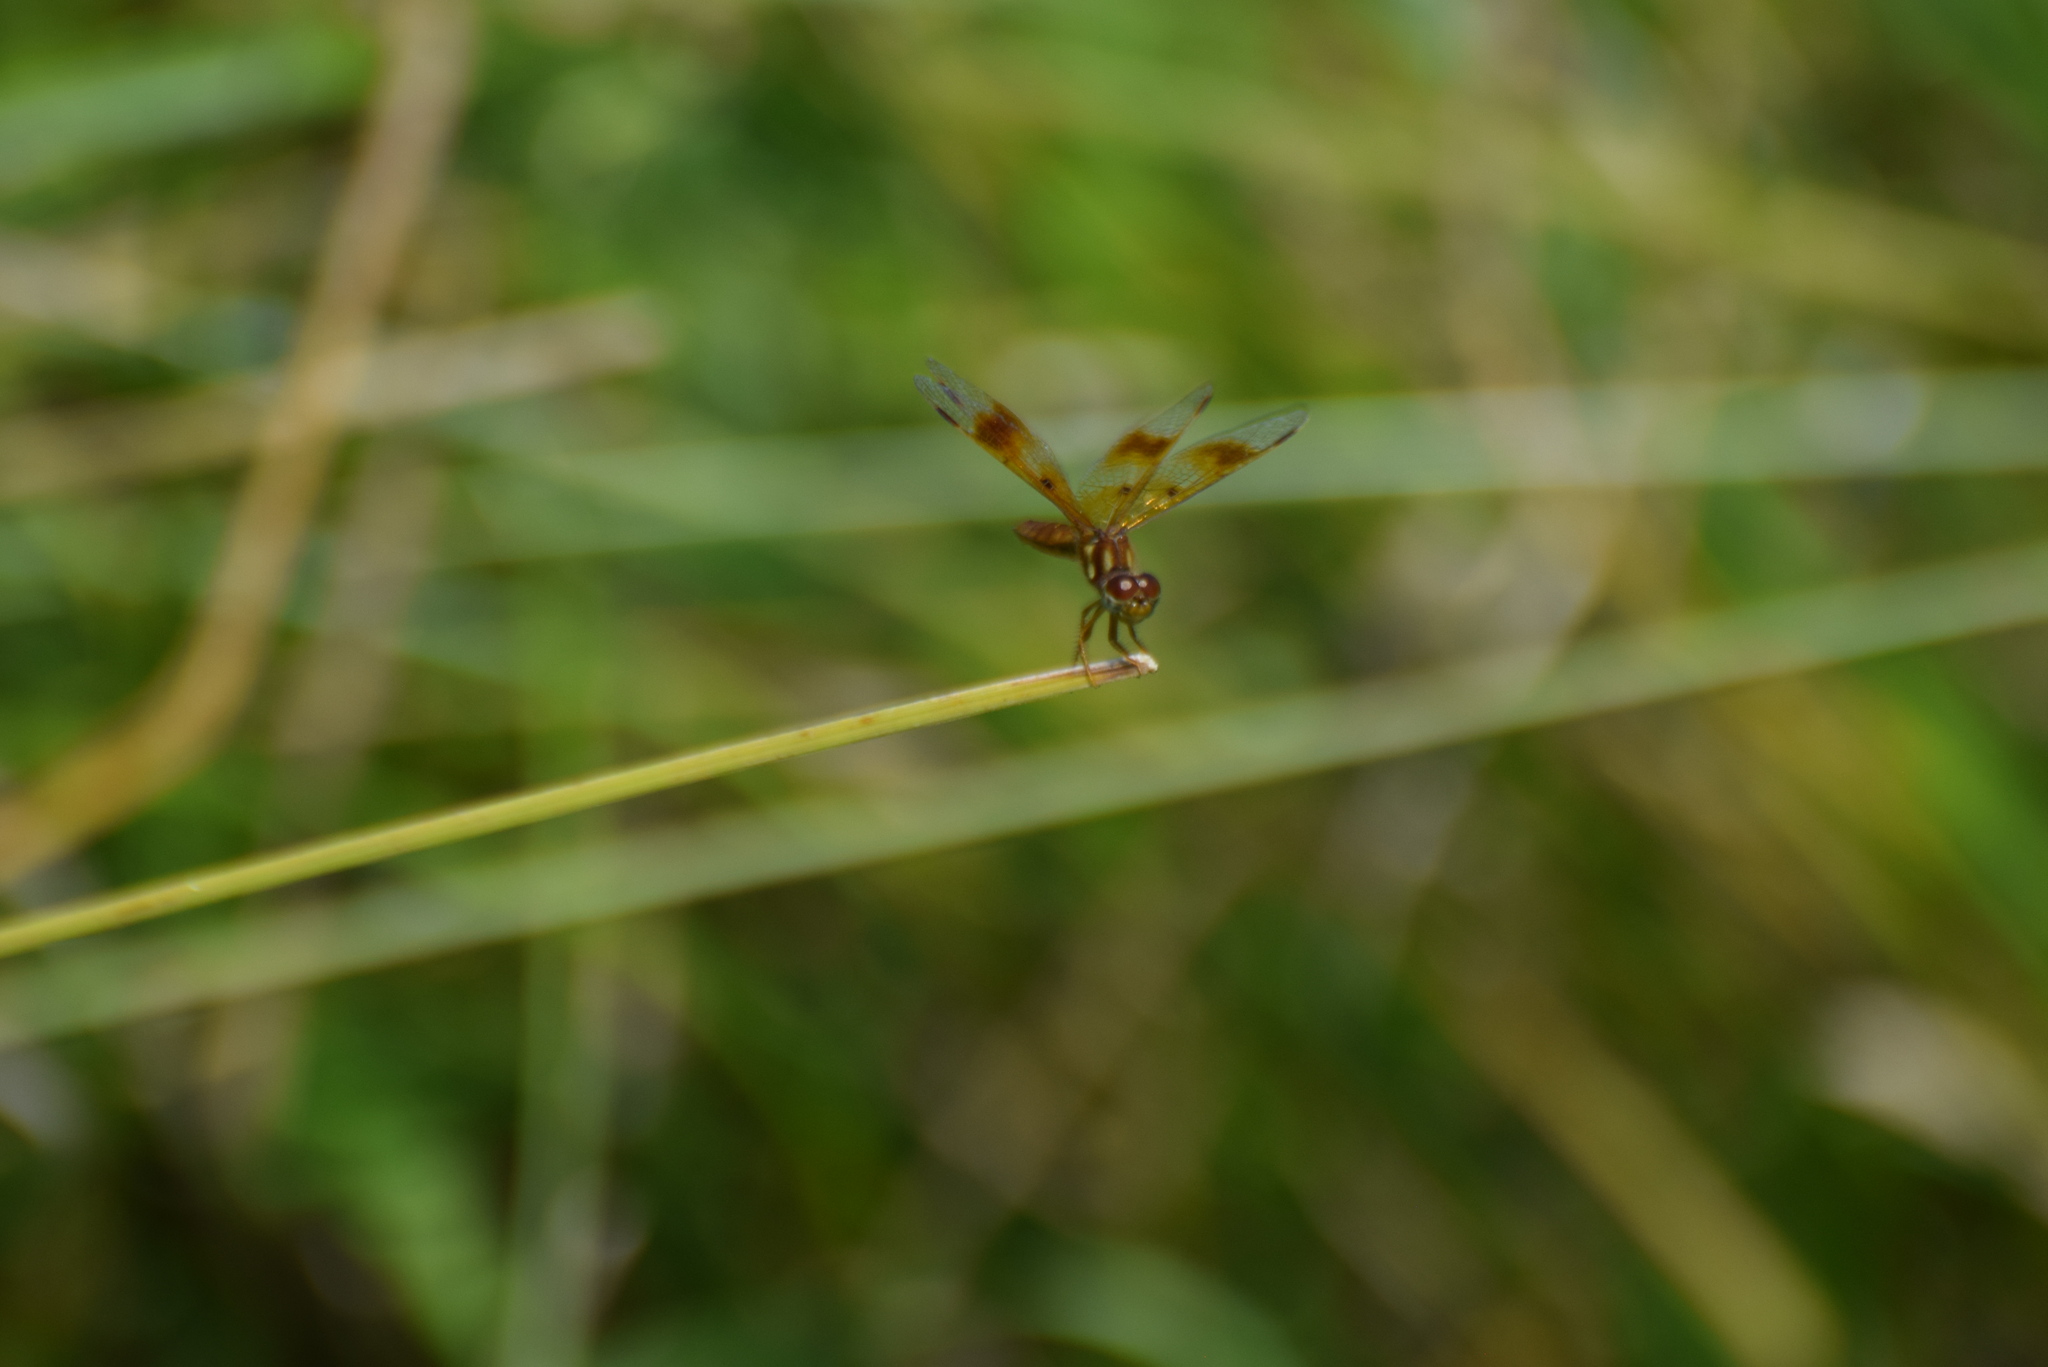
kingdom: Animalia
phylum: Arthropoda
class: Insecta
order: Odonata
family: Libellulidae
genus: Perithemis
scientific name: Perithemis tenera
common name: Eastern amberwing
